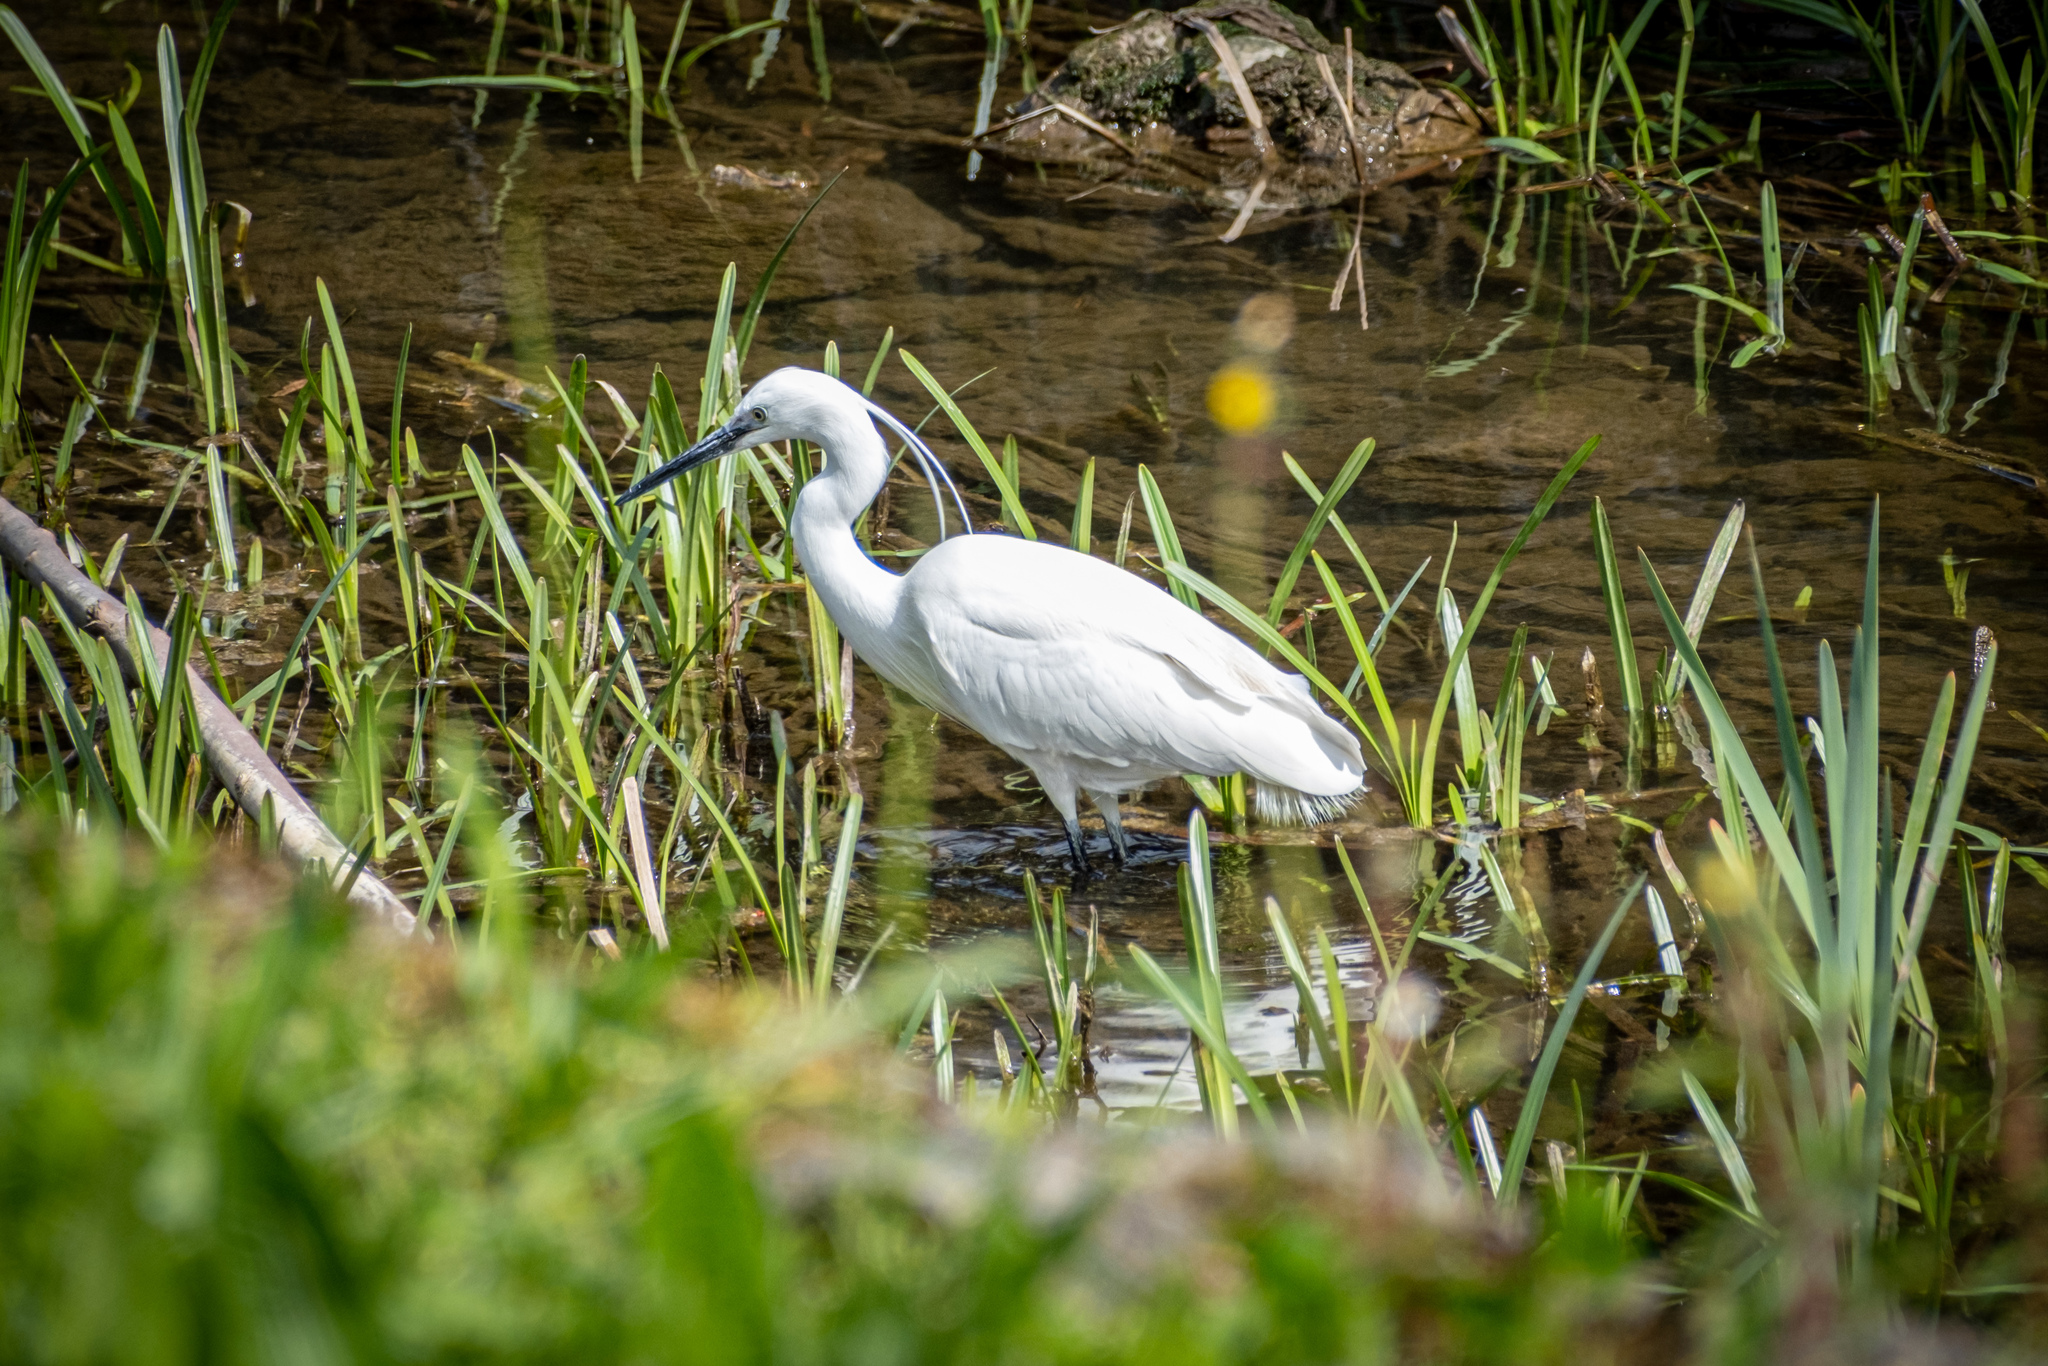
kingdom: Animalia
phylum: Chordata
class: Aves
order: Pelecaniformes
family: Ardeidae
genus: Egretta
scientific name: Egretta garzetta
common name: Little egret
